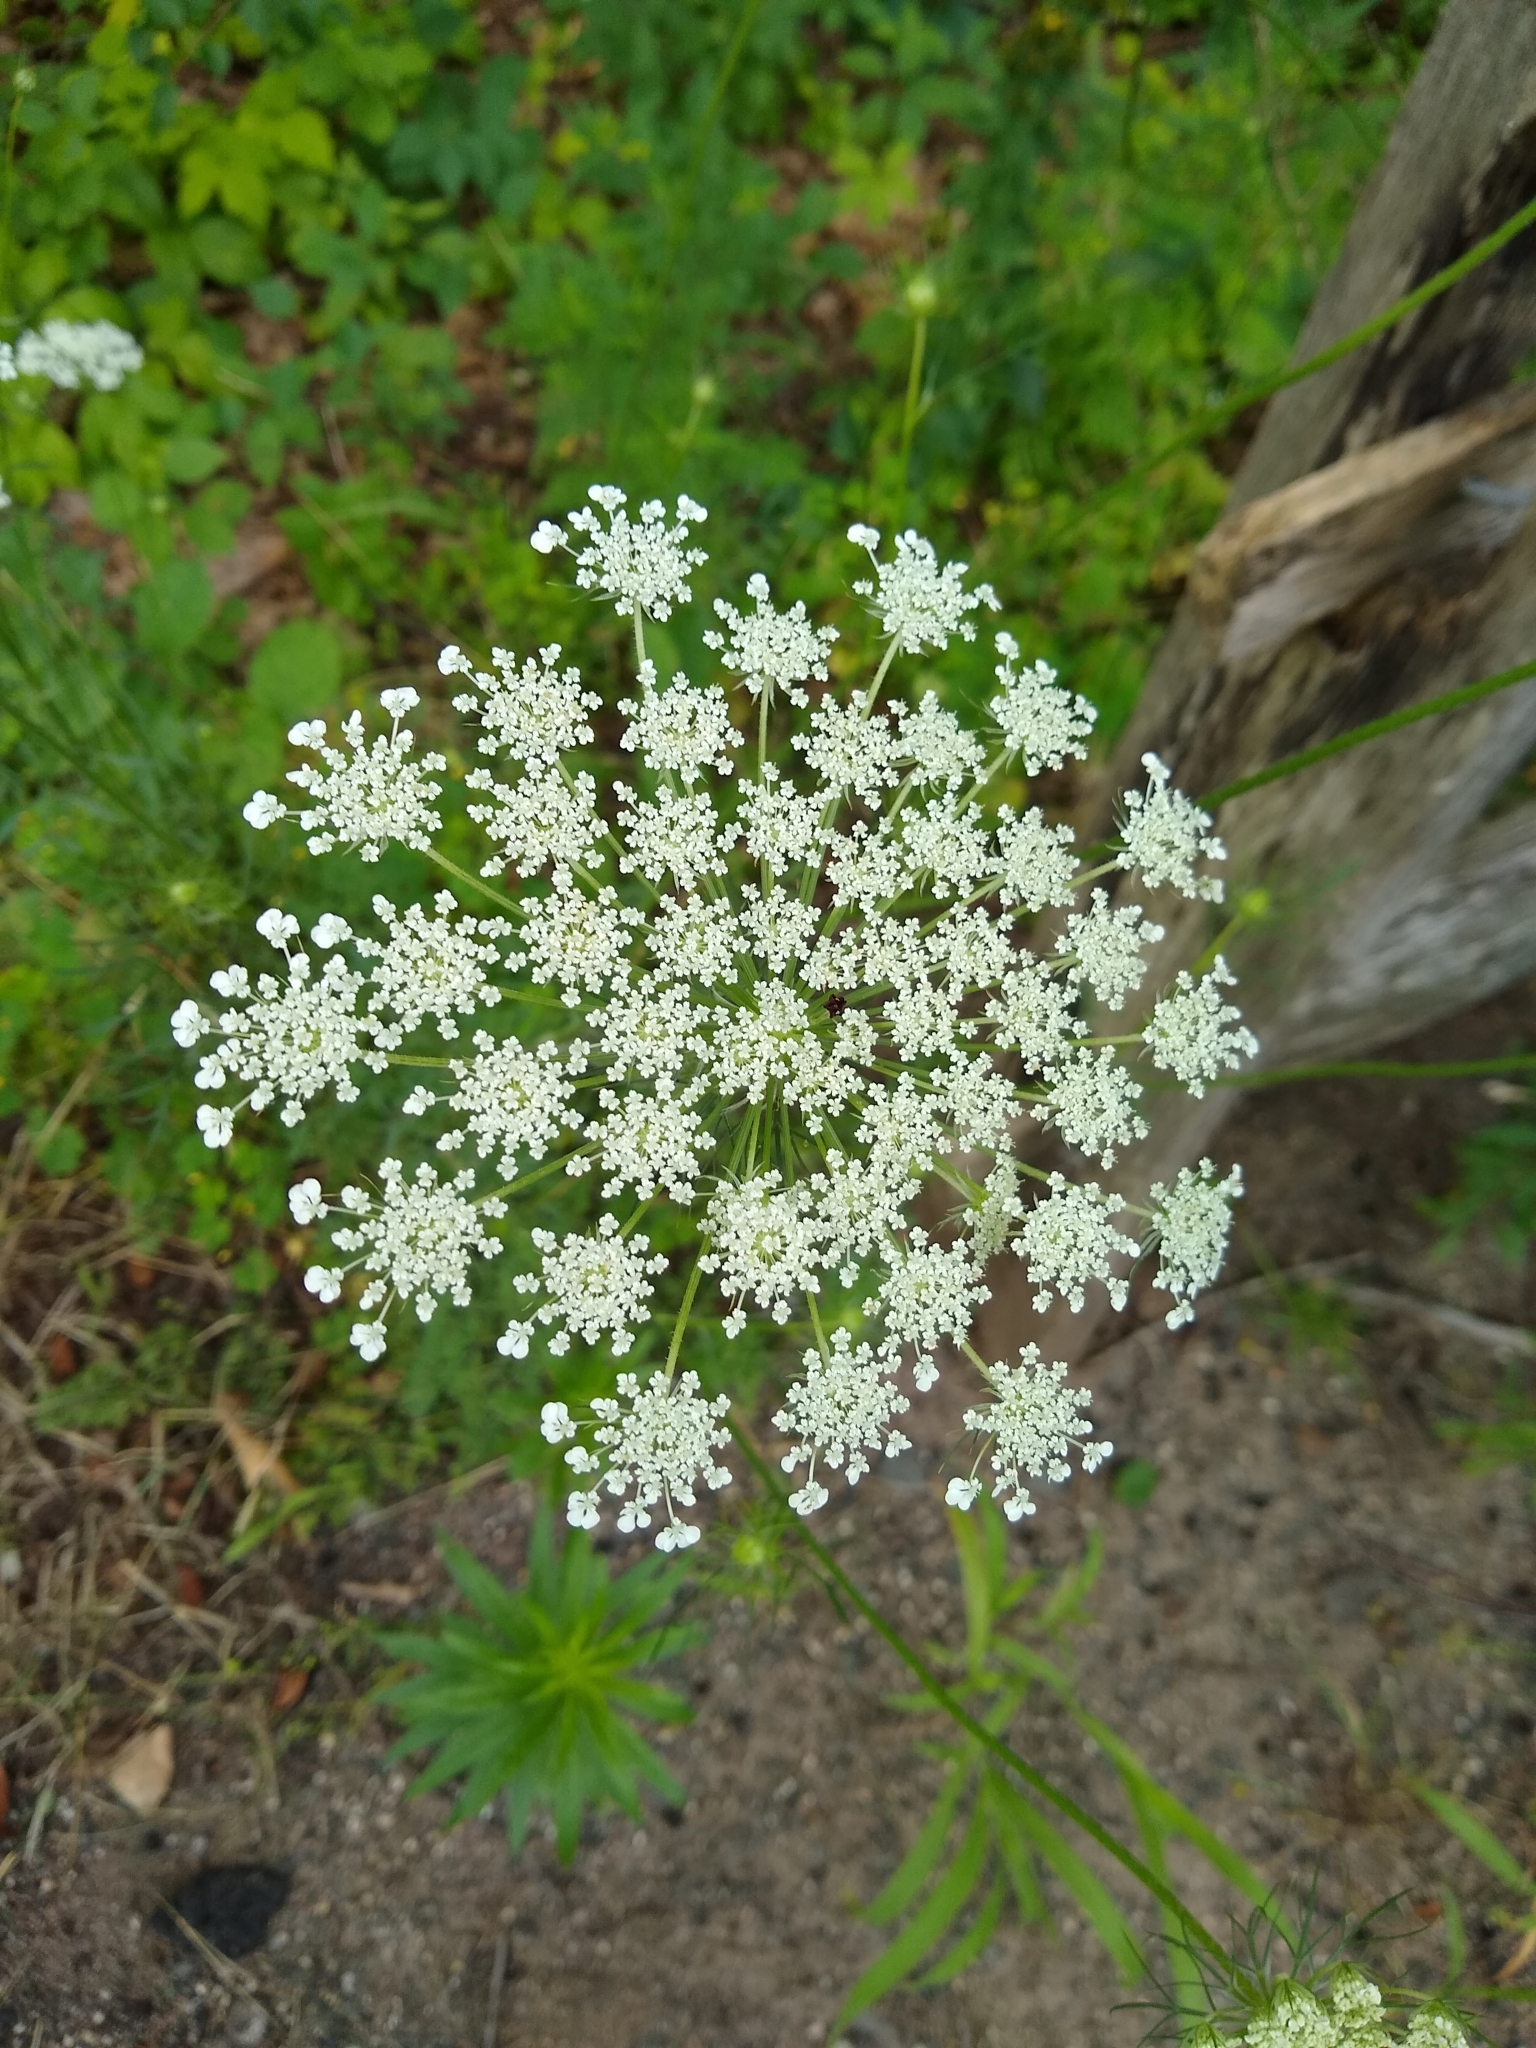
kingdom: Plantae
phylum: Tracheophyta
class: Magnoliopsida
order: Apiales
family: Apiaceae
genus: Daucus
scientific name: Daucus carota
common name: Wild carrot
